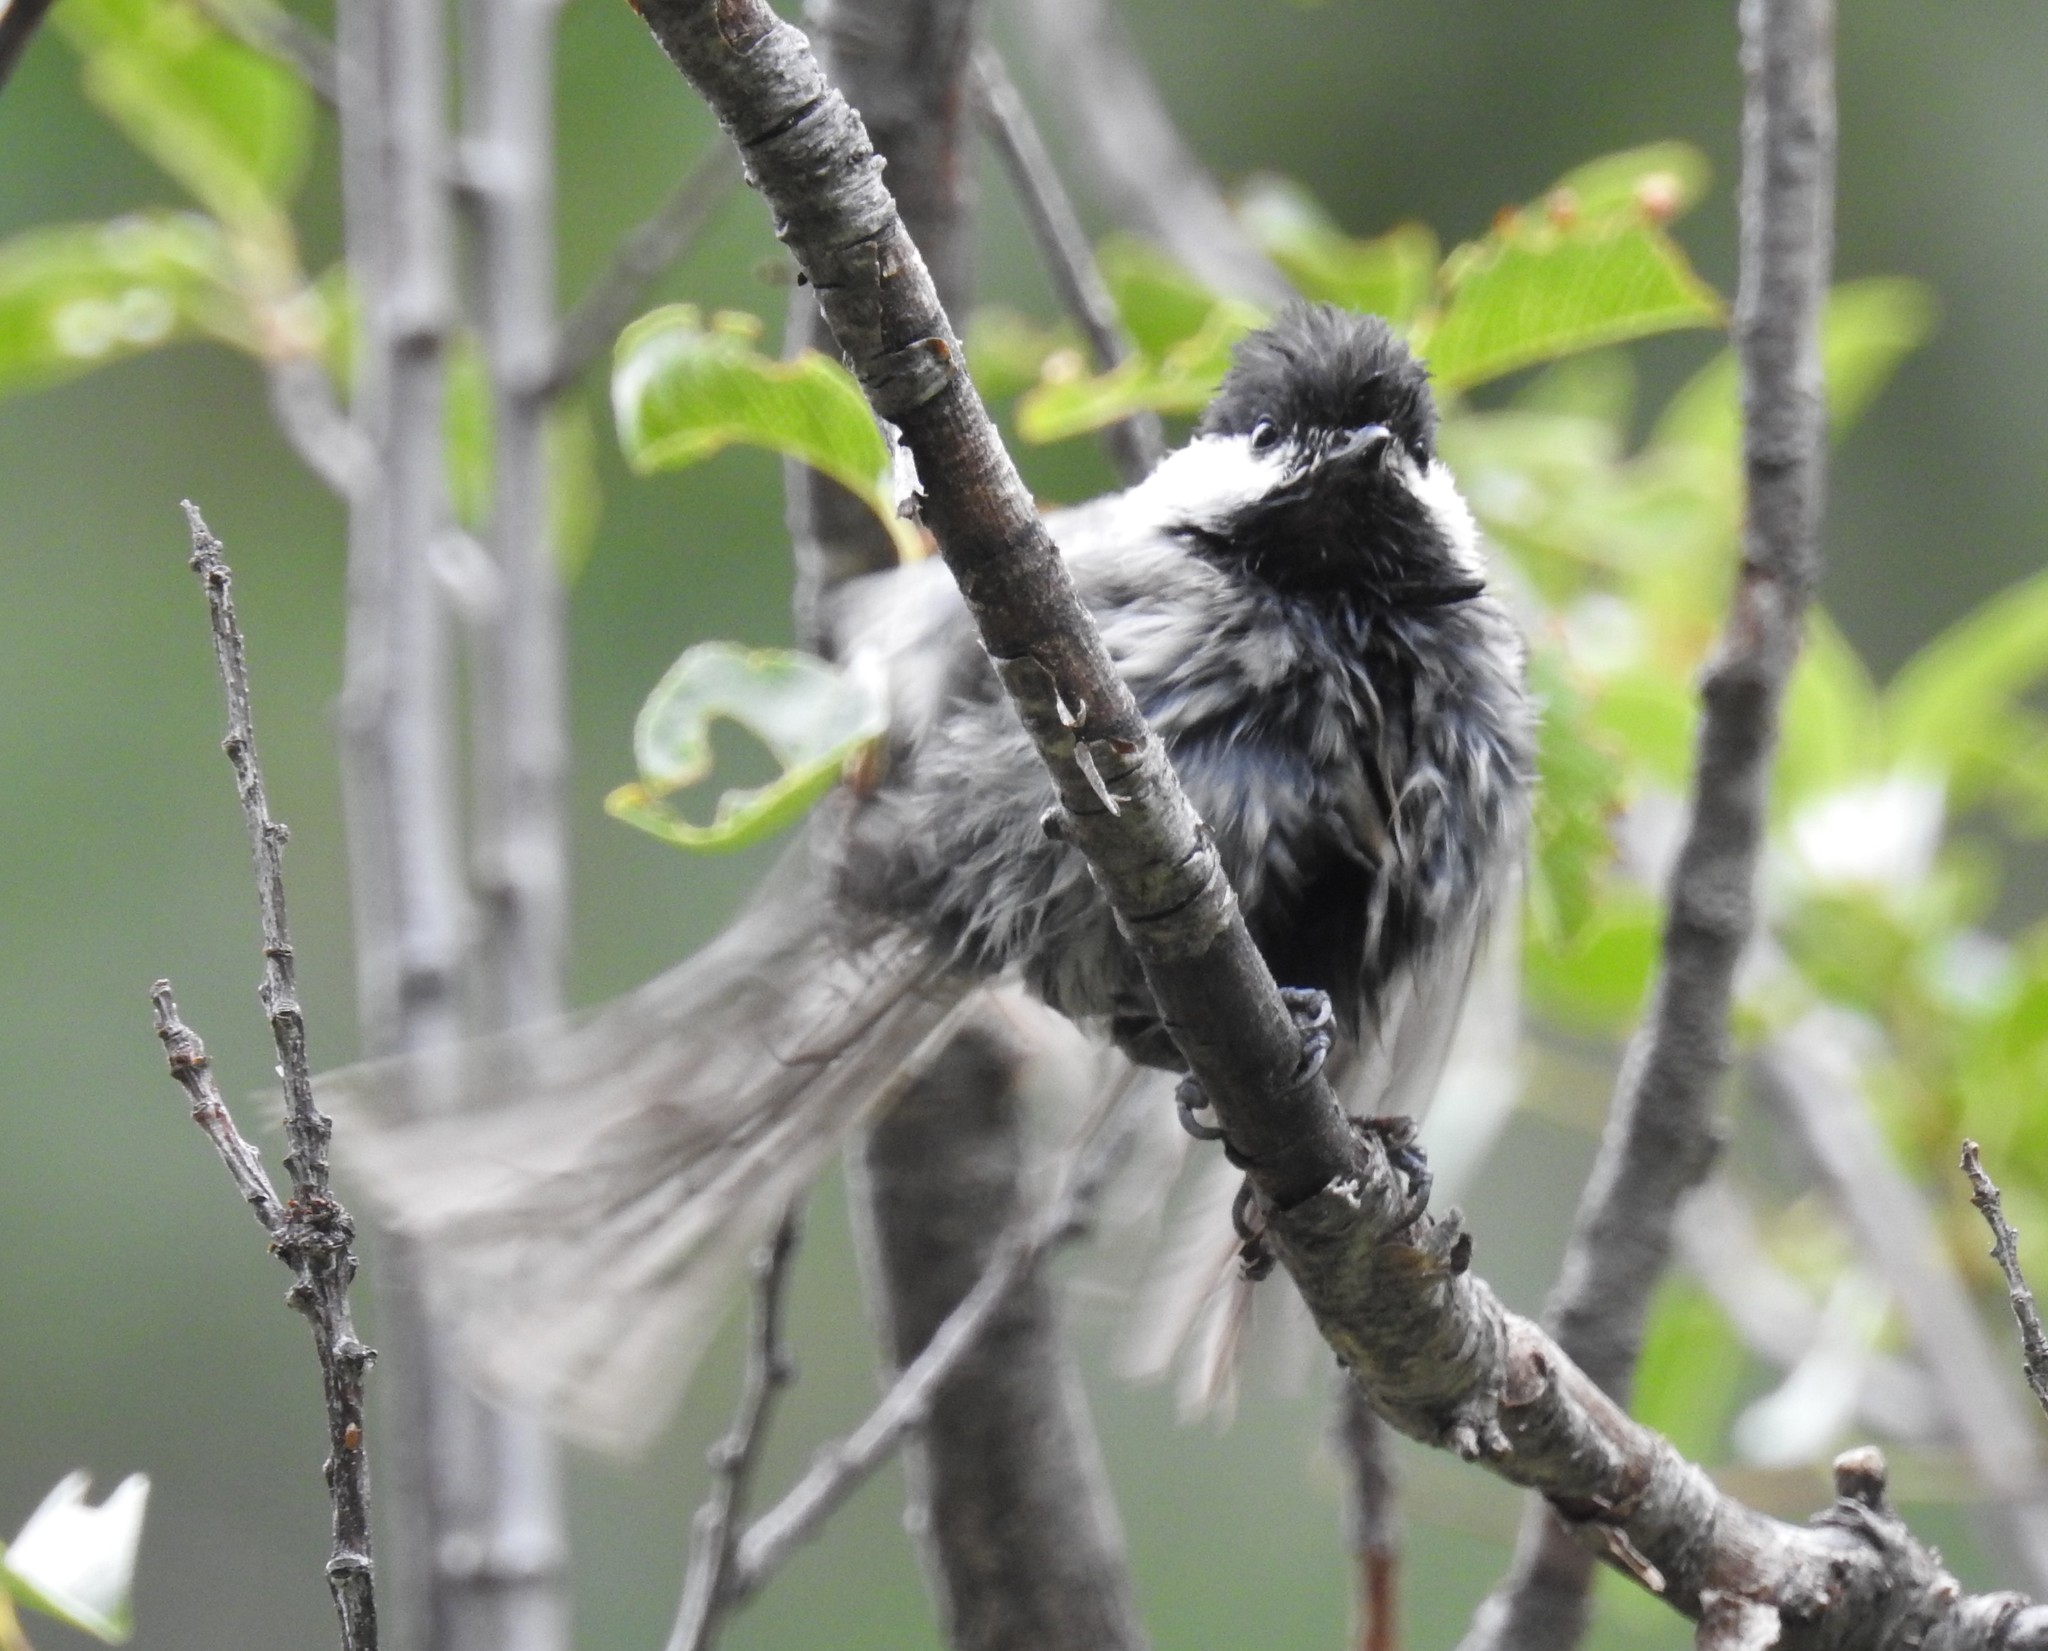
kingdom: Animalia
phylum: Chordata
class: Aves
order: Passeriformes
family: Paridae
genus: Poecile
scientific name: Poecile sclateri
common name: Mexican chickadee
